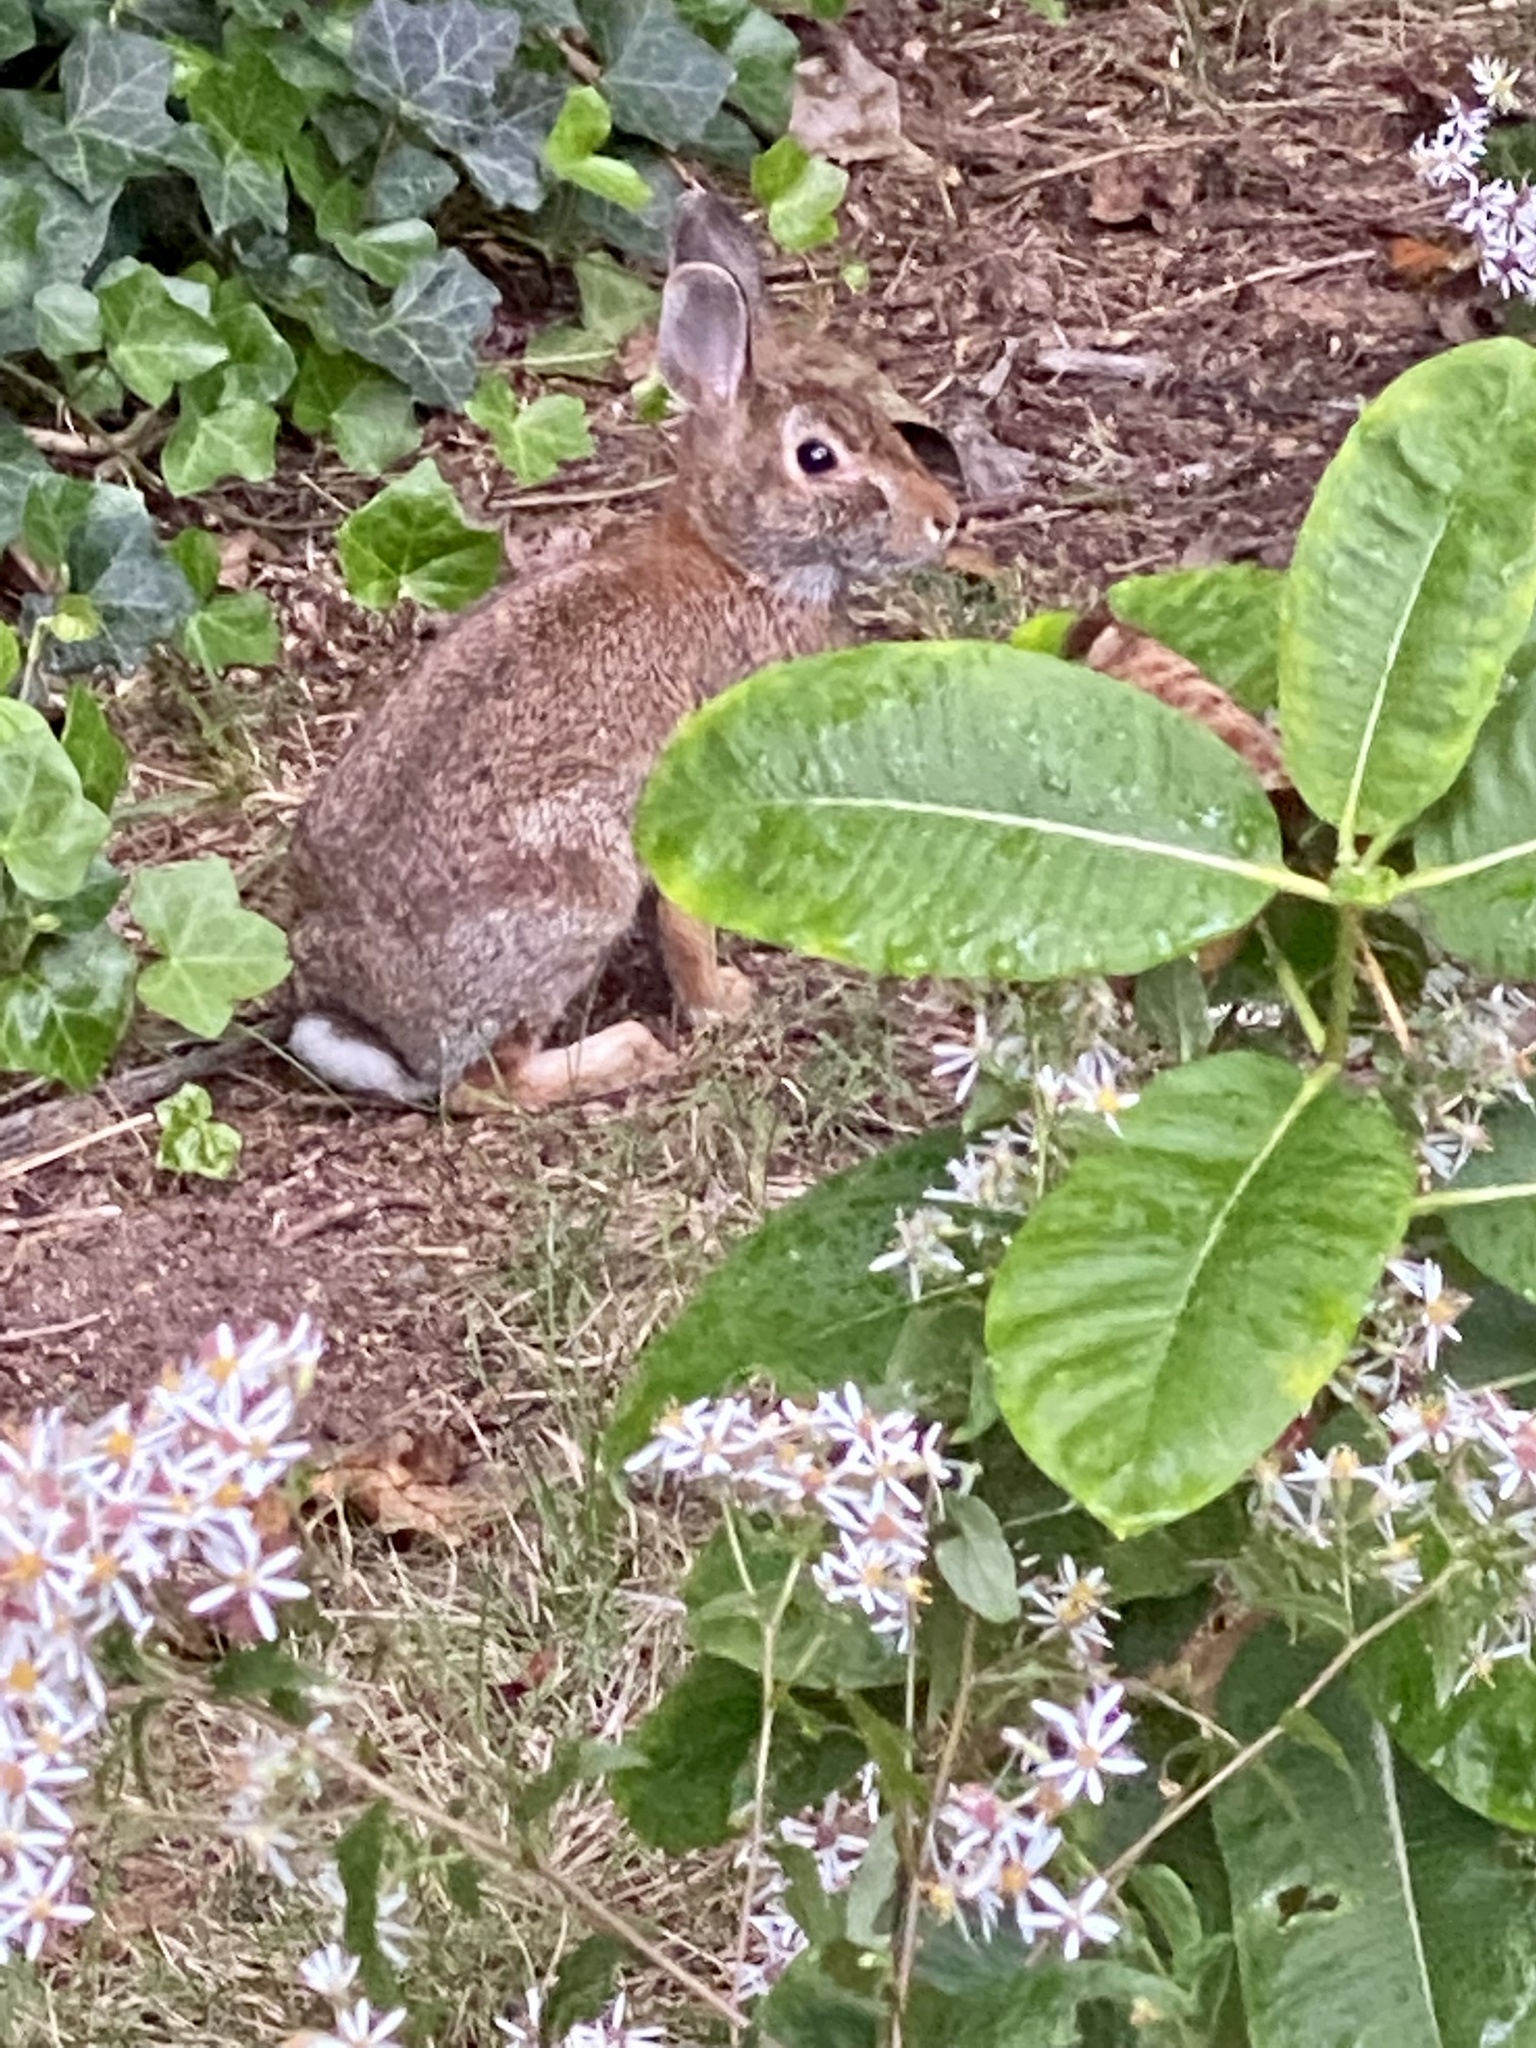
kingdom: Animalia
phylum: Chordata
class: Mammalia
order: Lagomorpha
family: Leporidae
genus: Sylvilagus
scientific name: Sylvilagus floridanus
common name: Eastern cottontail
